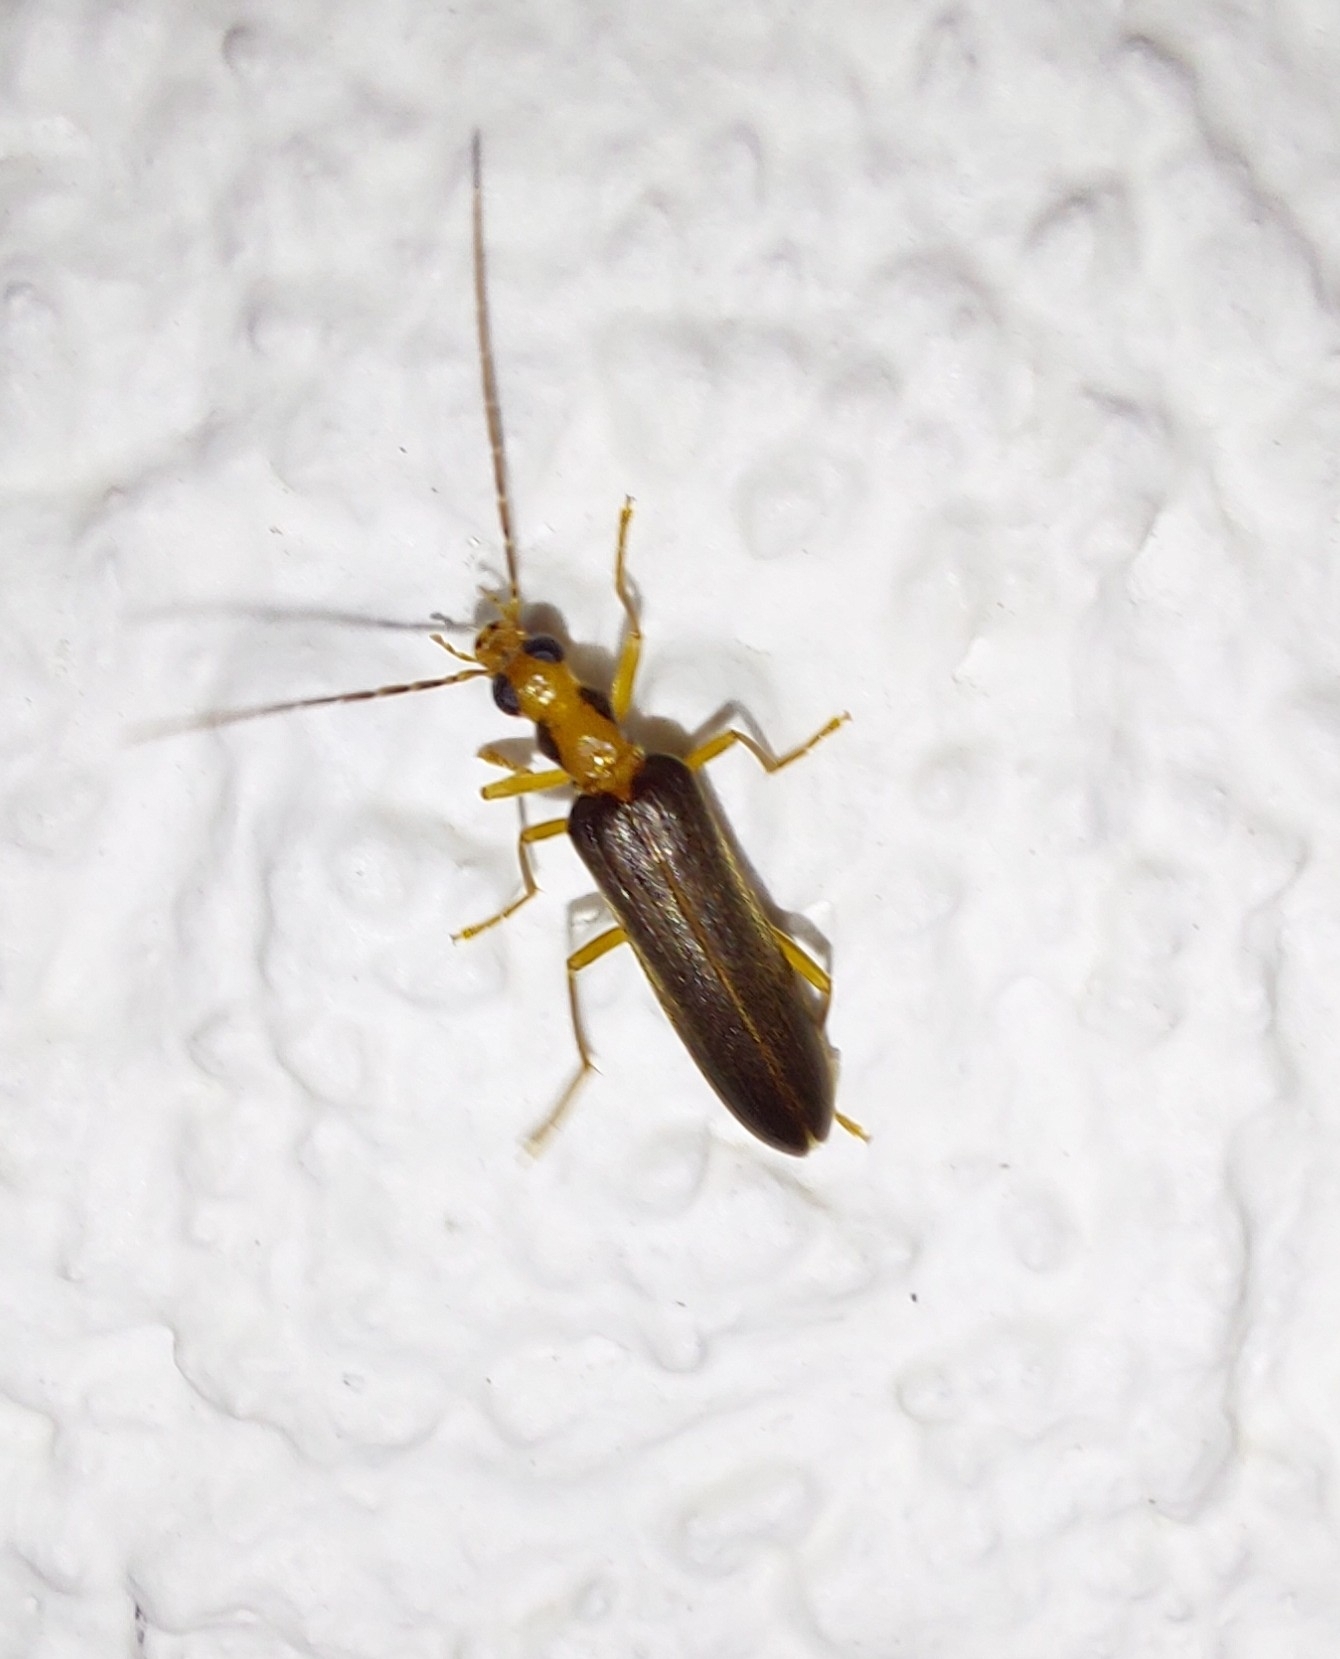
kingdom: Animalia
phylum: Arthropoda
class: Insecta
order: Coleoptera
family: Oedemeridae
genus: Nacerdes
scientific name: Nacerdes carniolica
